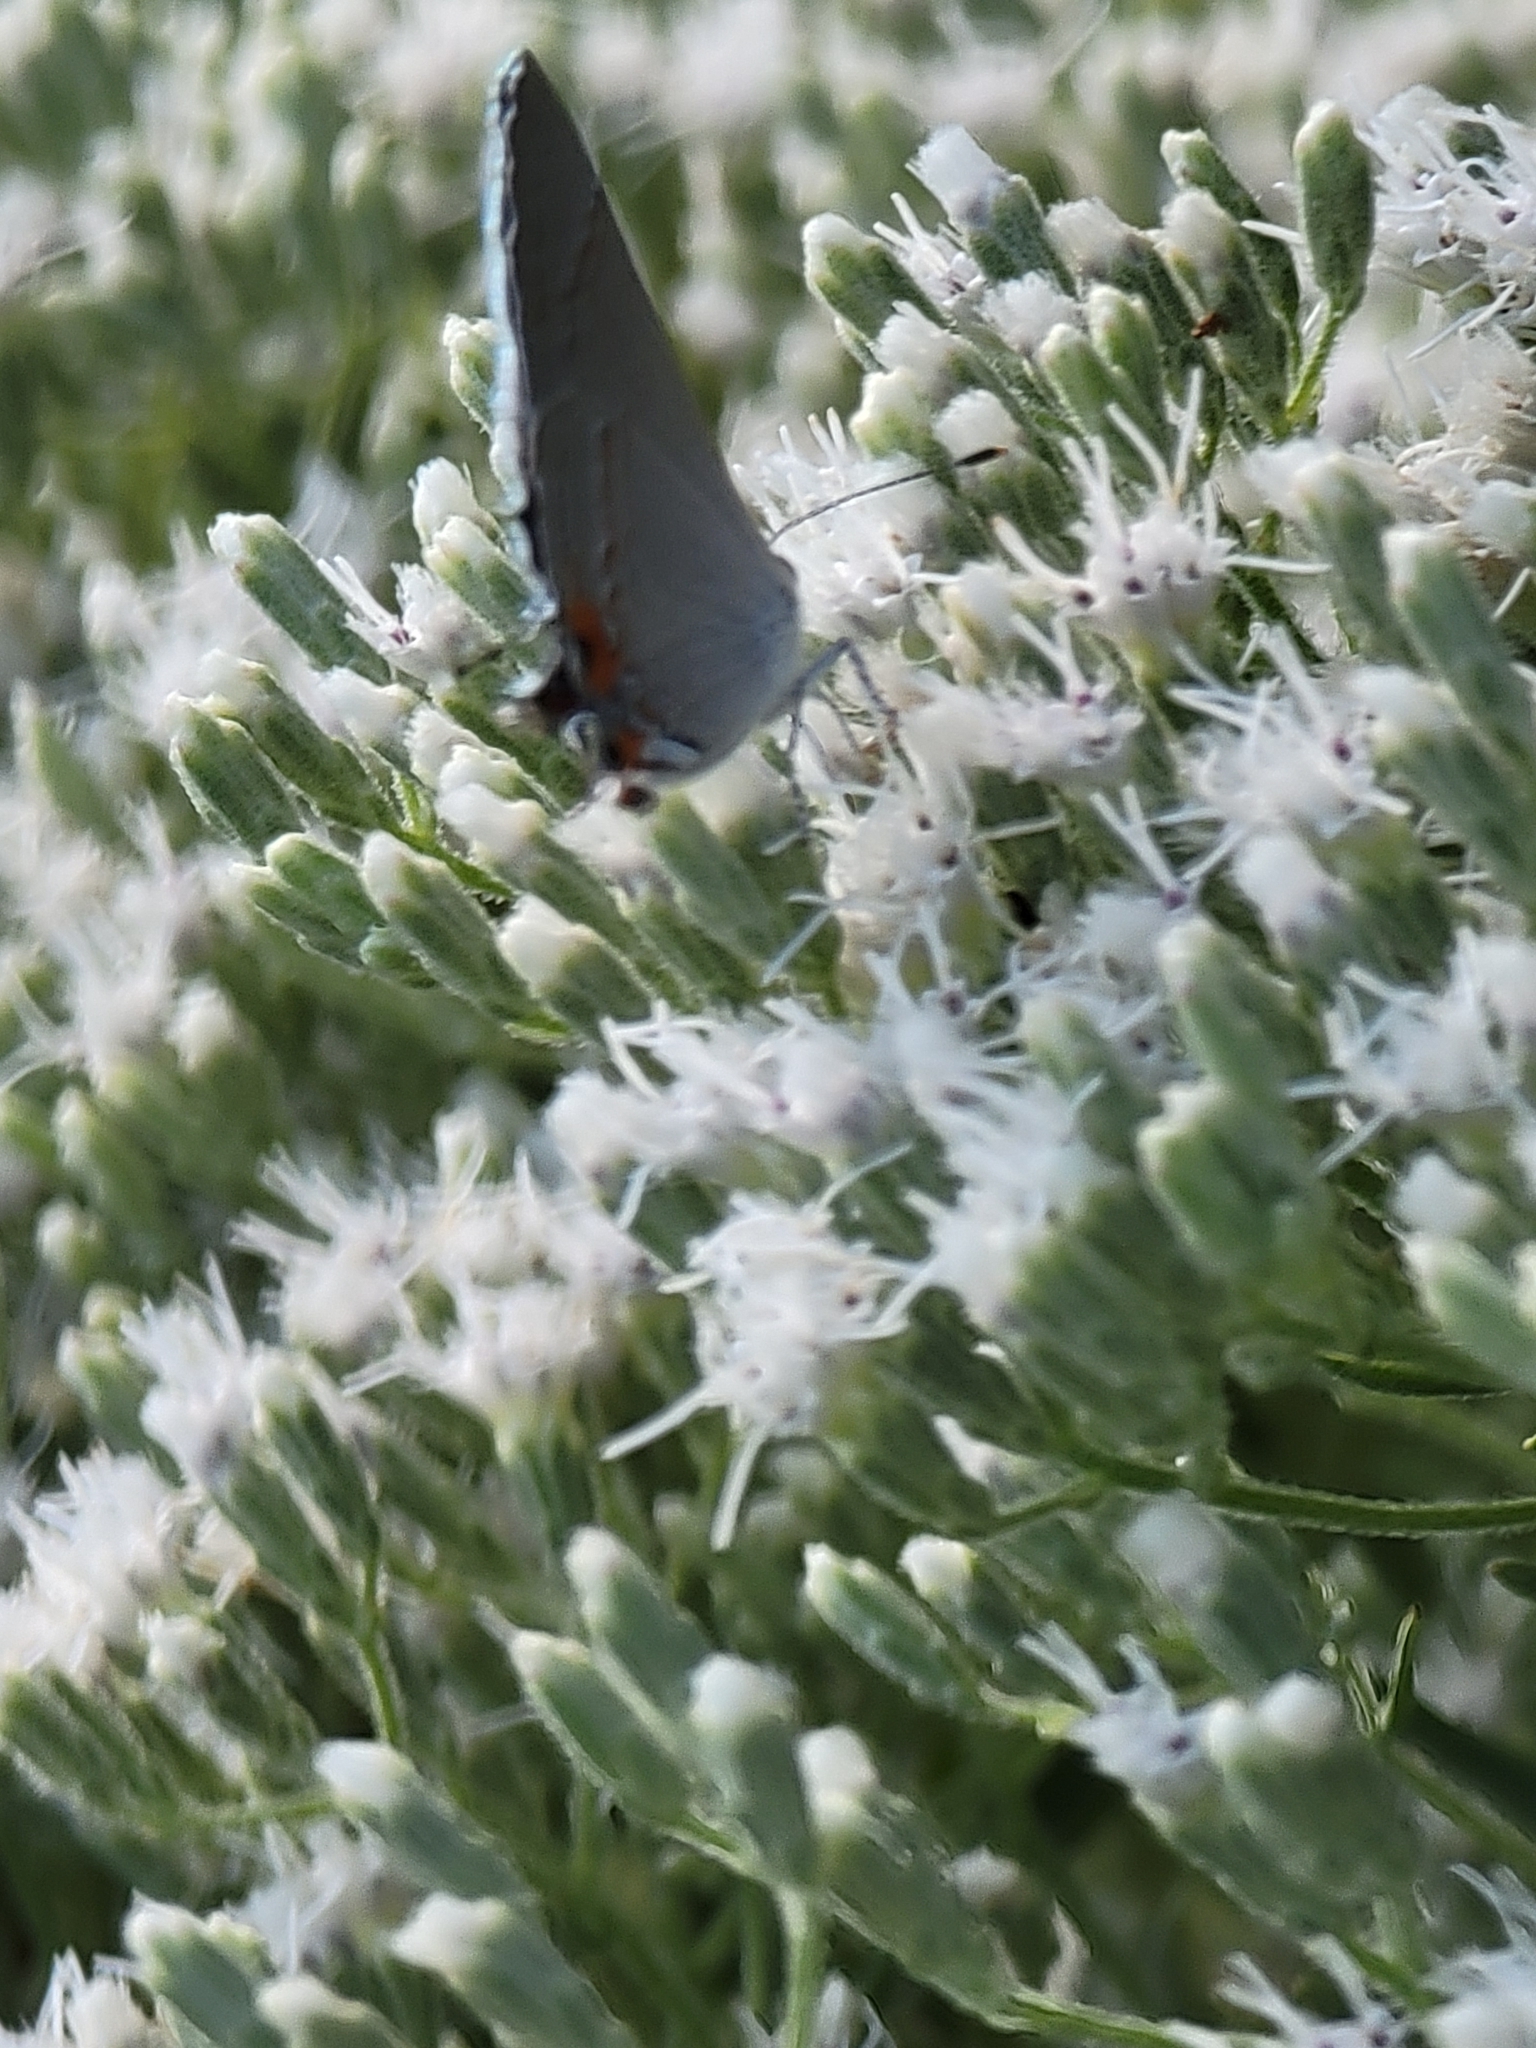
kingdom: Animalia
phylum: Arthropoda
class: Insecta
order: Lepidoptera
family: Lycaenidae
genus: Strymon
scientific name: Strymon melinus
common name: Gray hairstreak
